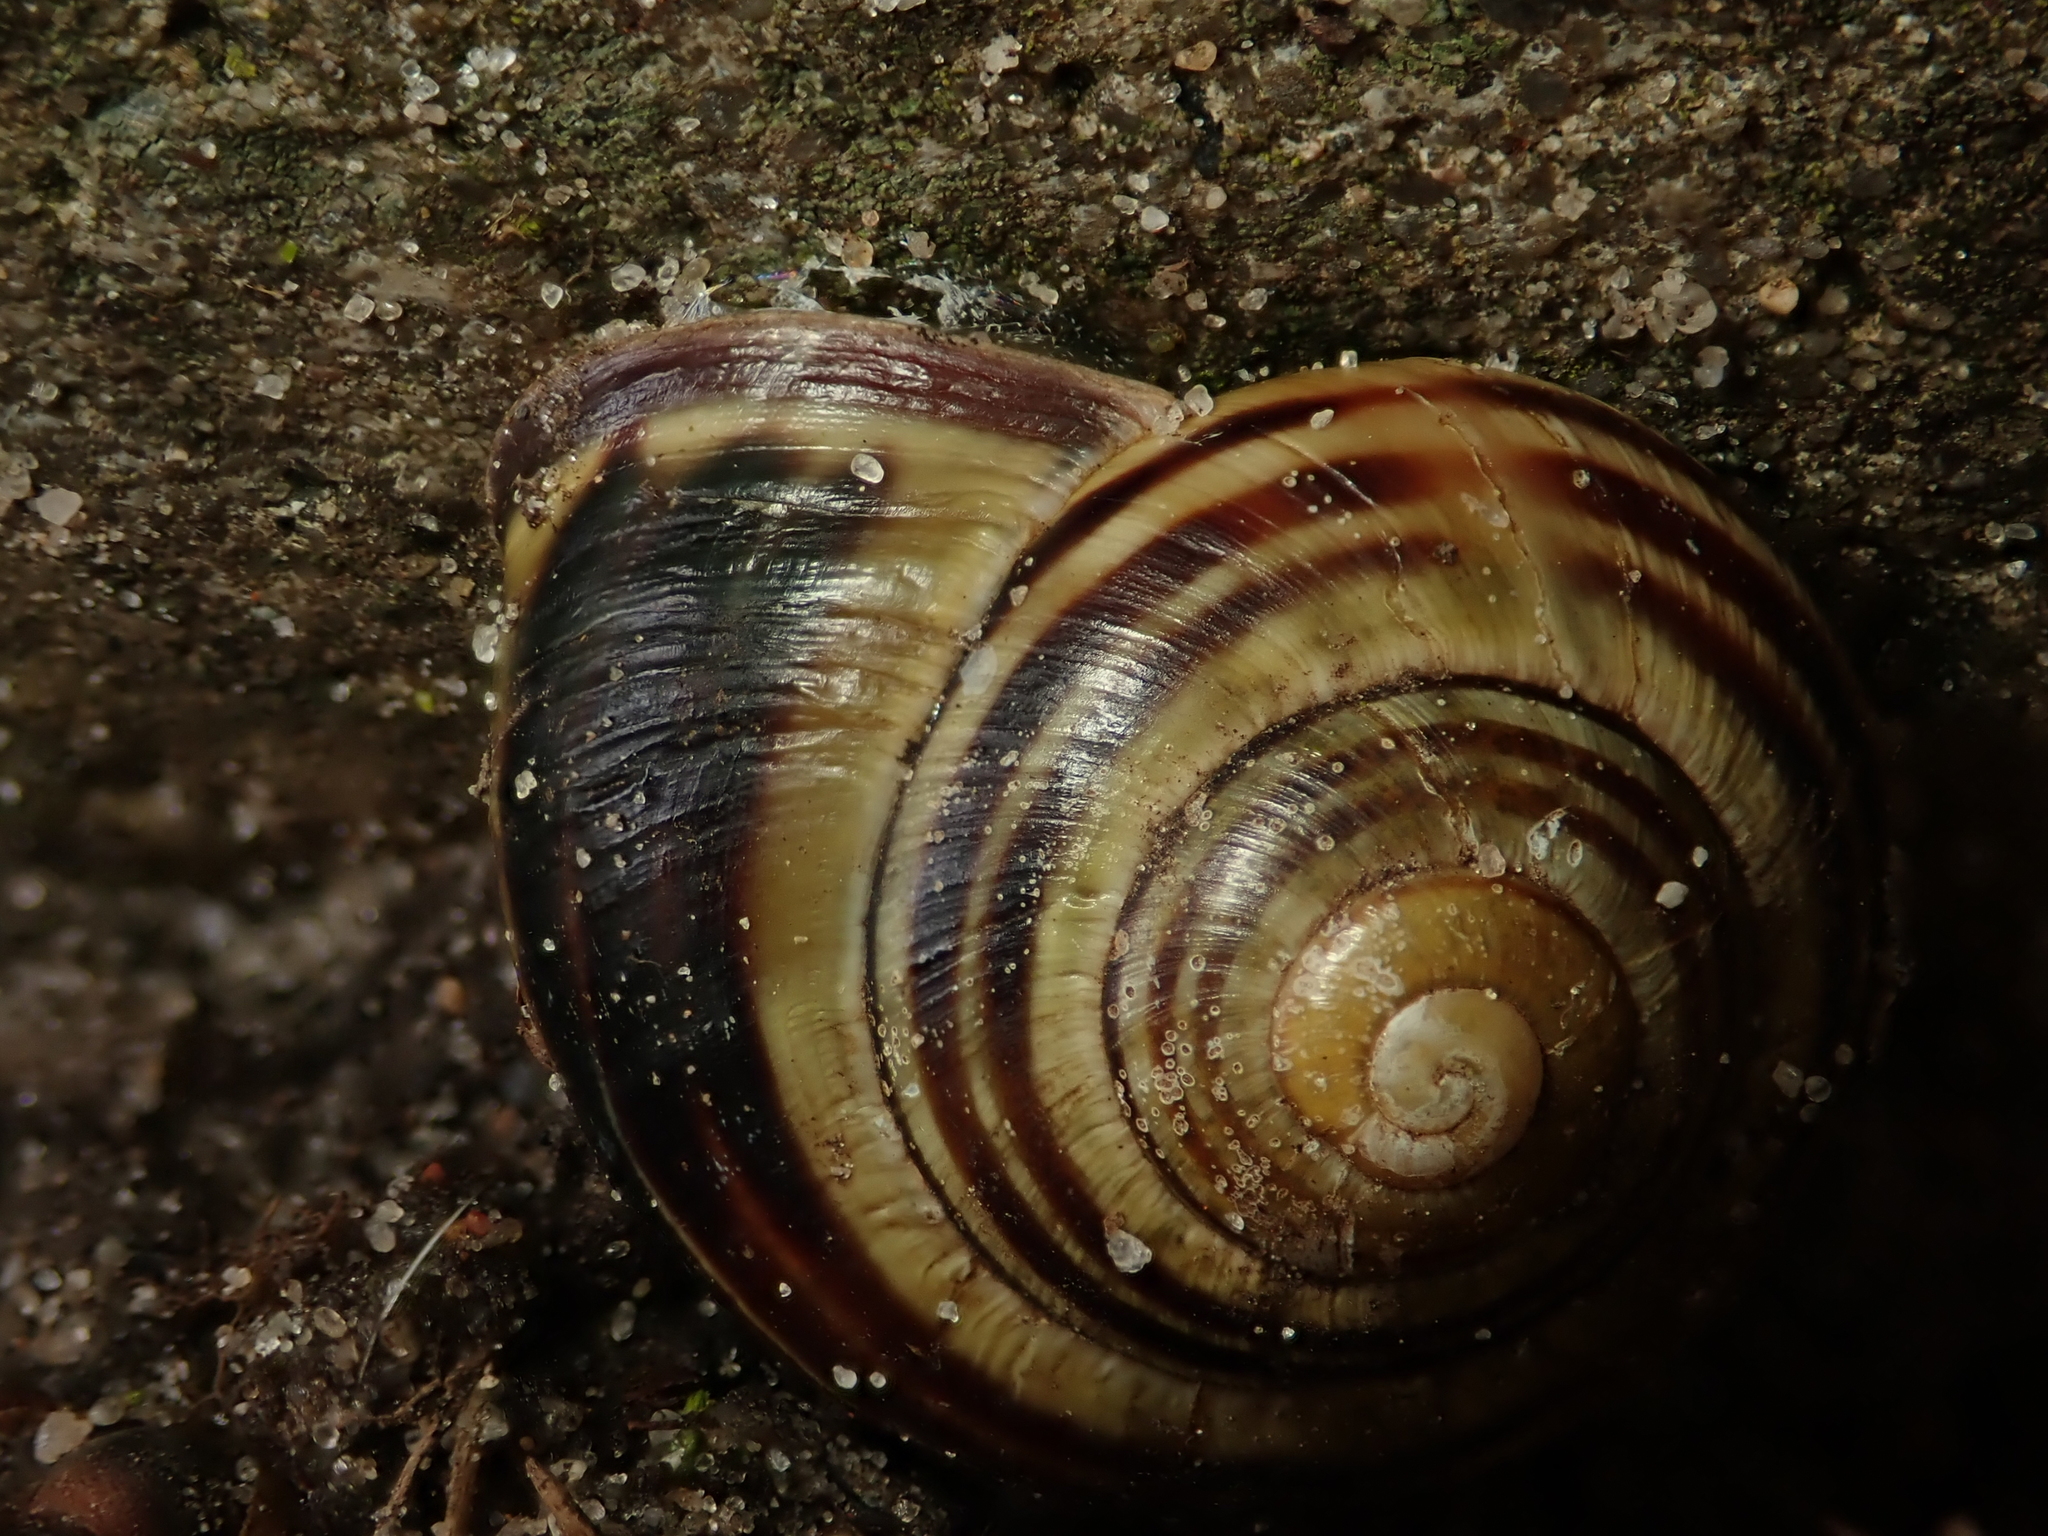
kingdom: Animalia
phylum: Mollusca
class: Gastropoda
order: Stylommatophora
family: Helicidae
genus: Cepaea
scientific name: Cepaea nemoralis
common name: Grovesnail
